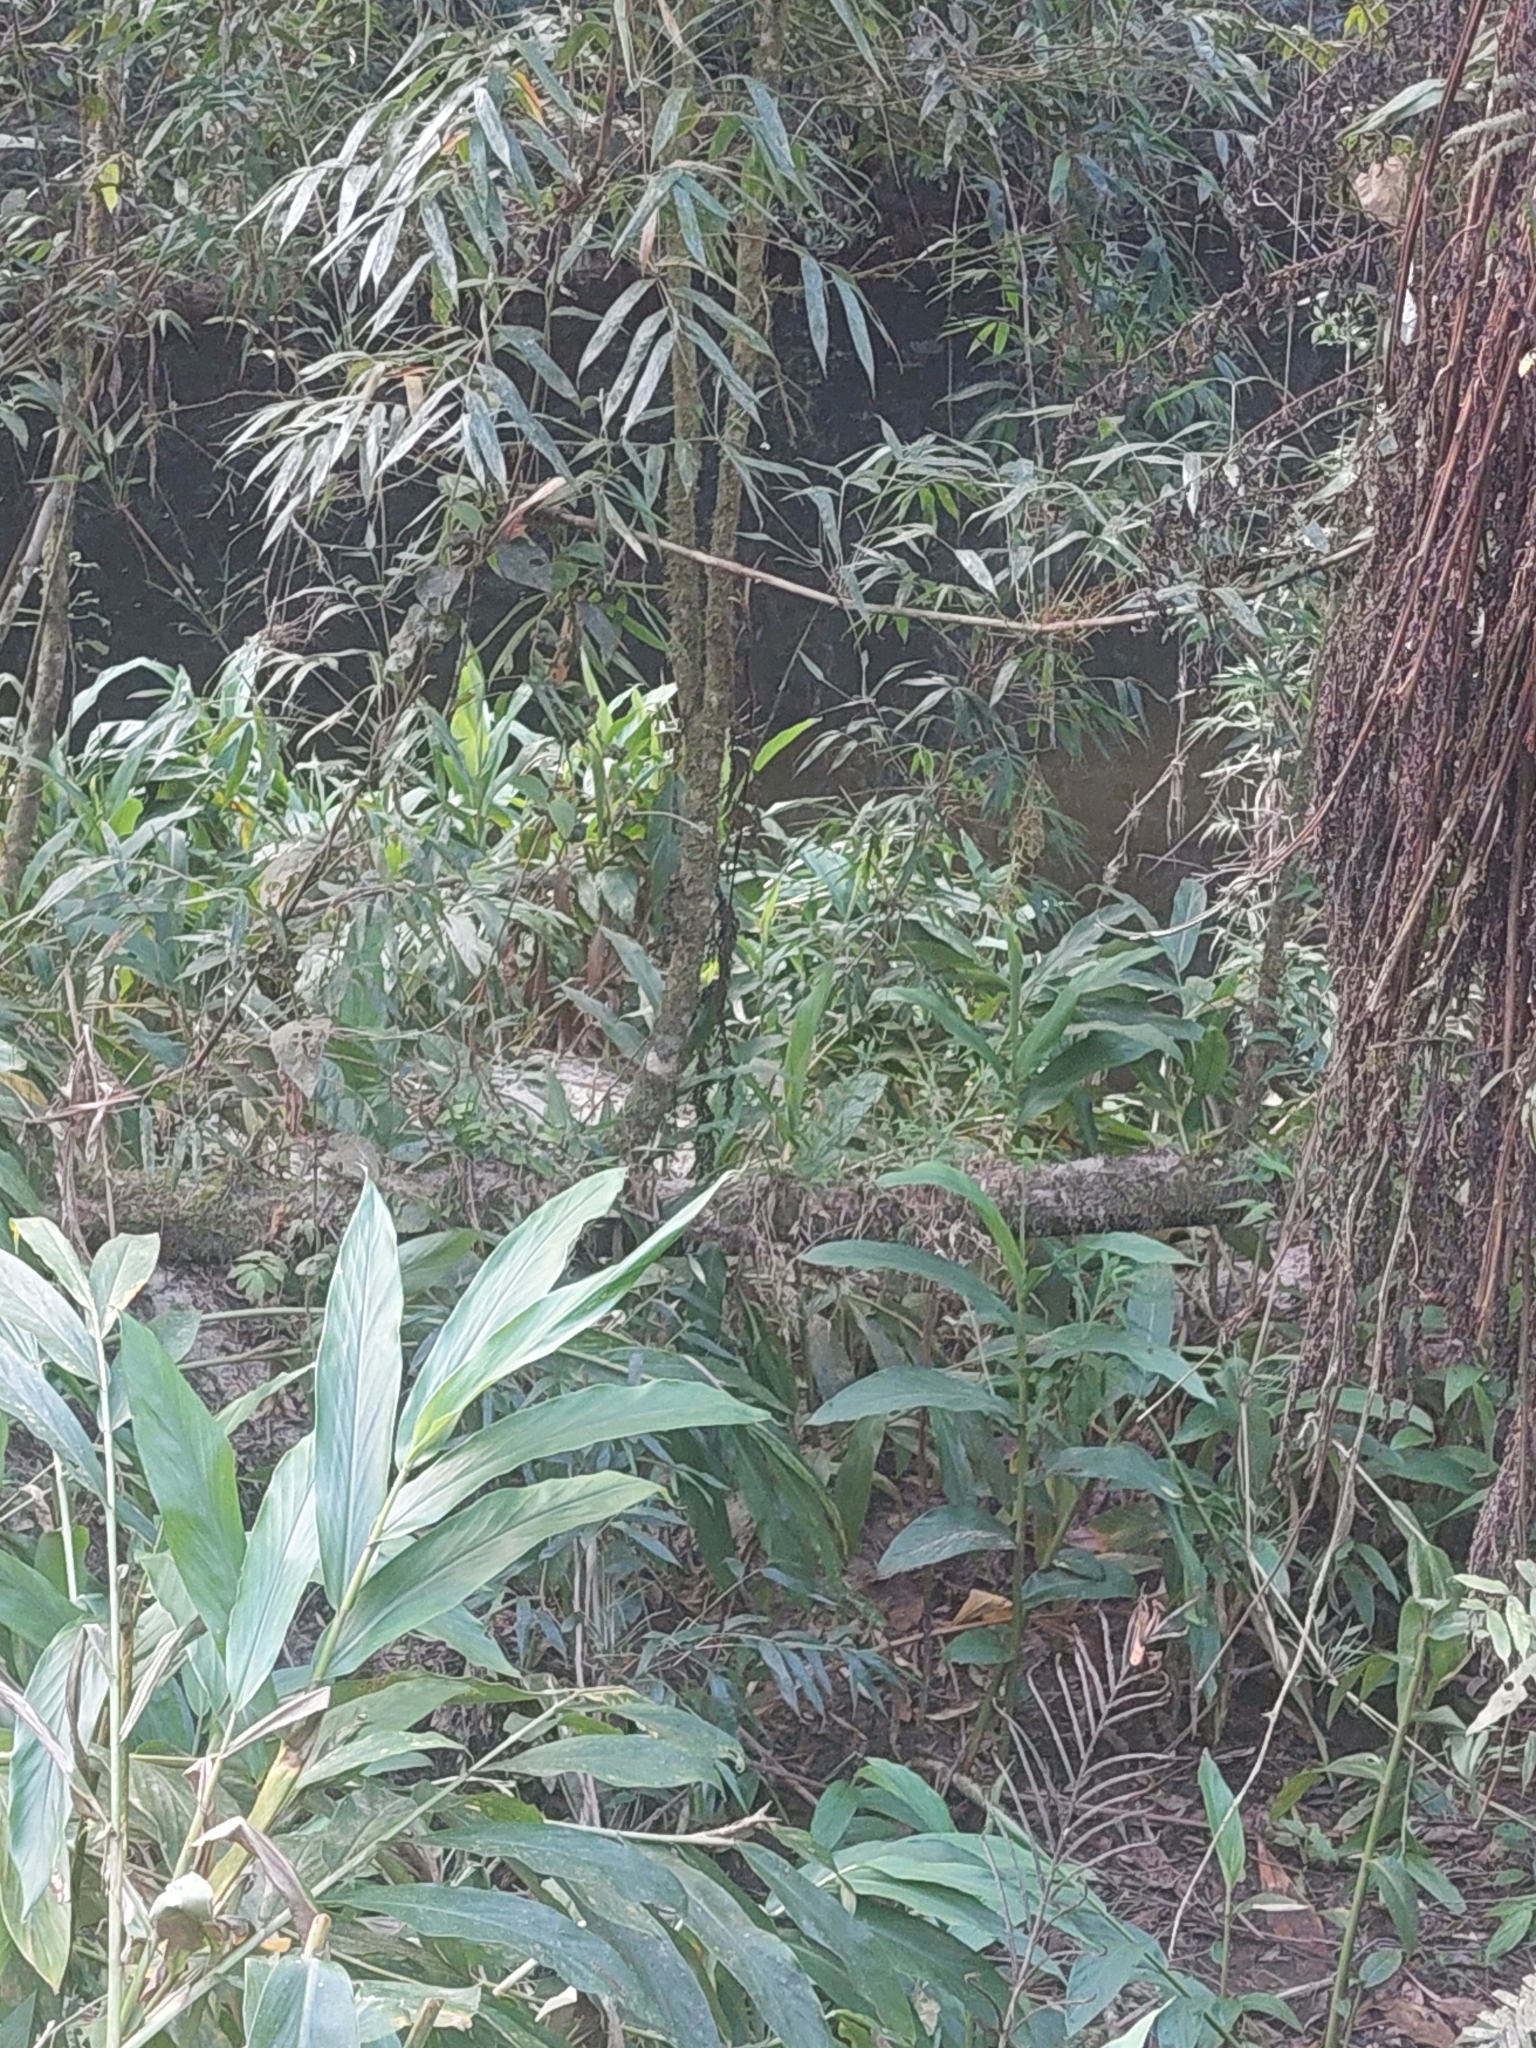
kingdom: Plantae
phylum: Tracheophyta
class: Liliopsida
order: Zingiberales
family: Zingiberaceae
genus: Hedychium
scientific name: Hedychium coronarium
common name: White garland-lily
